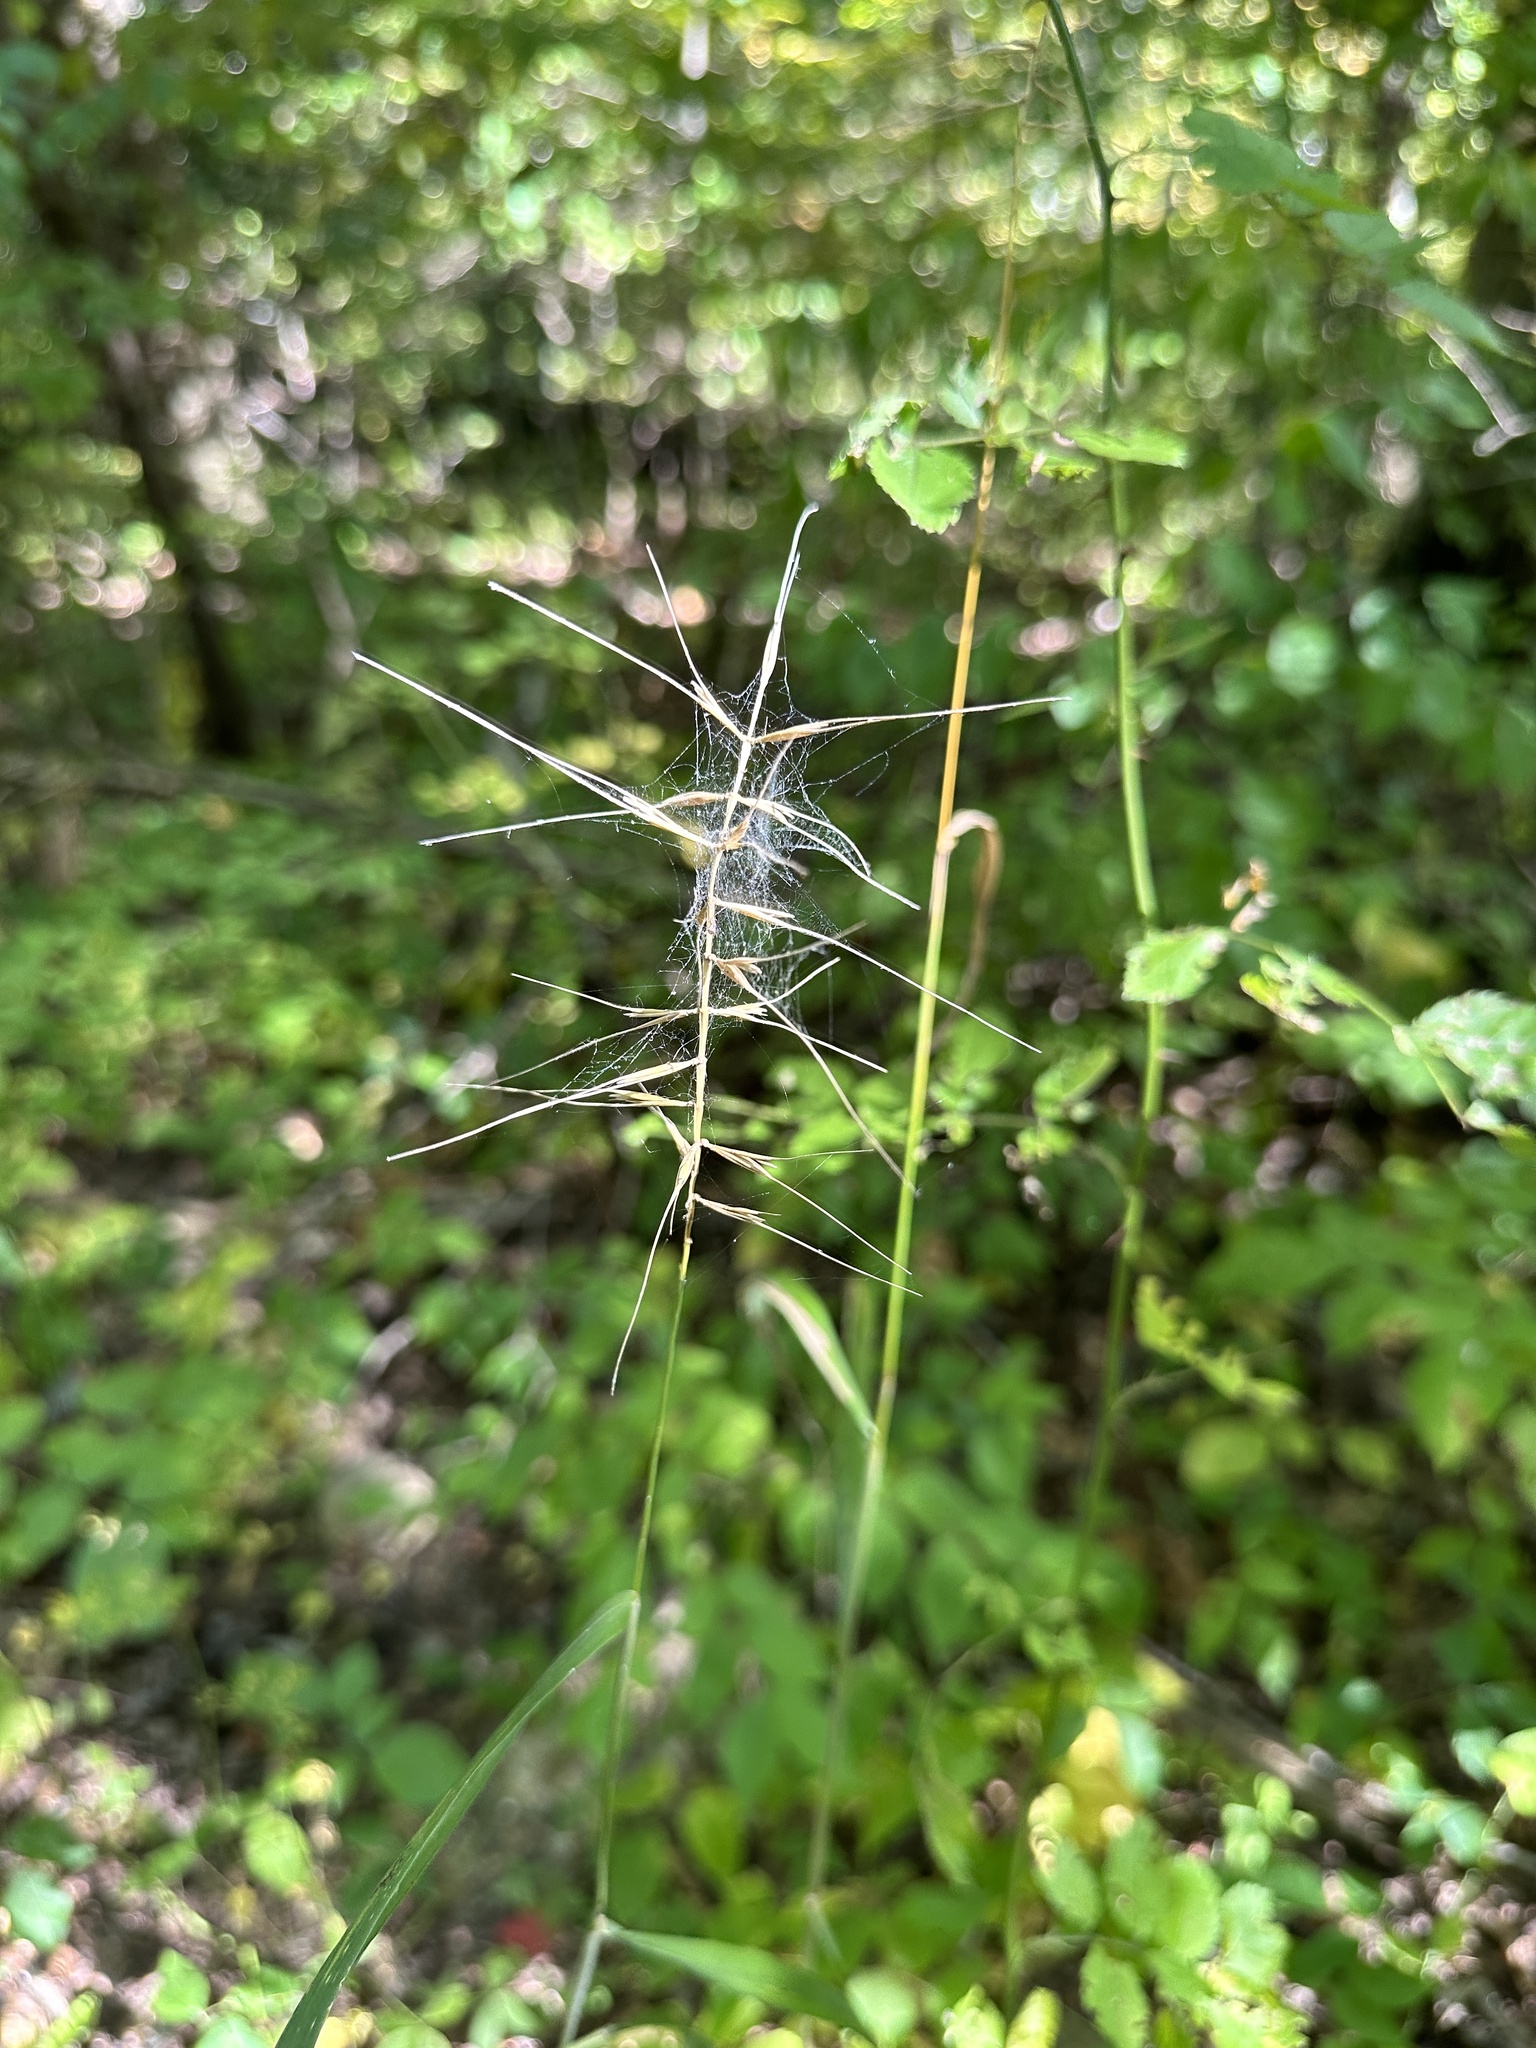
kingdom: Plantae
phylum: Tracheophyta
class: Liliopsida
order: Poales
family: Poaceae
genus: Elymus
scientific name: Elymus hystrix
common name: Bottlebrush grass
